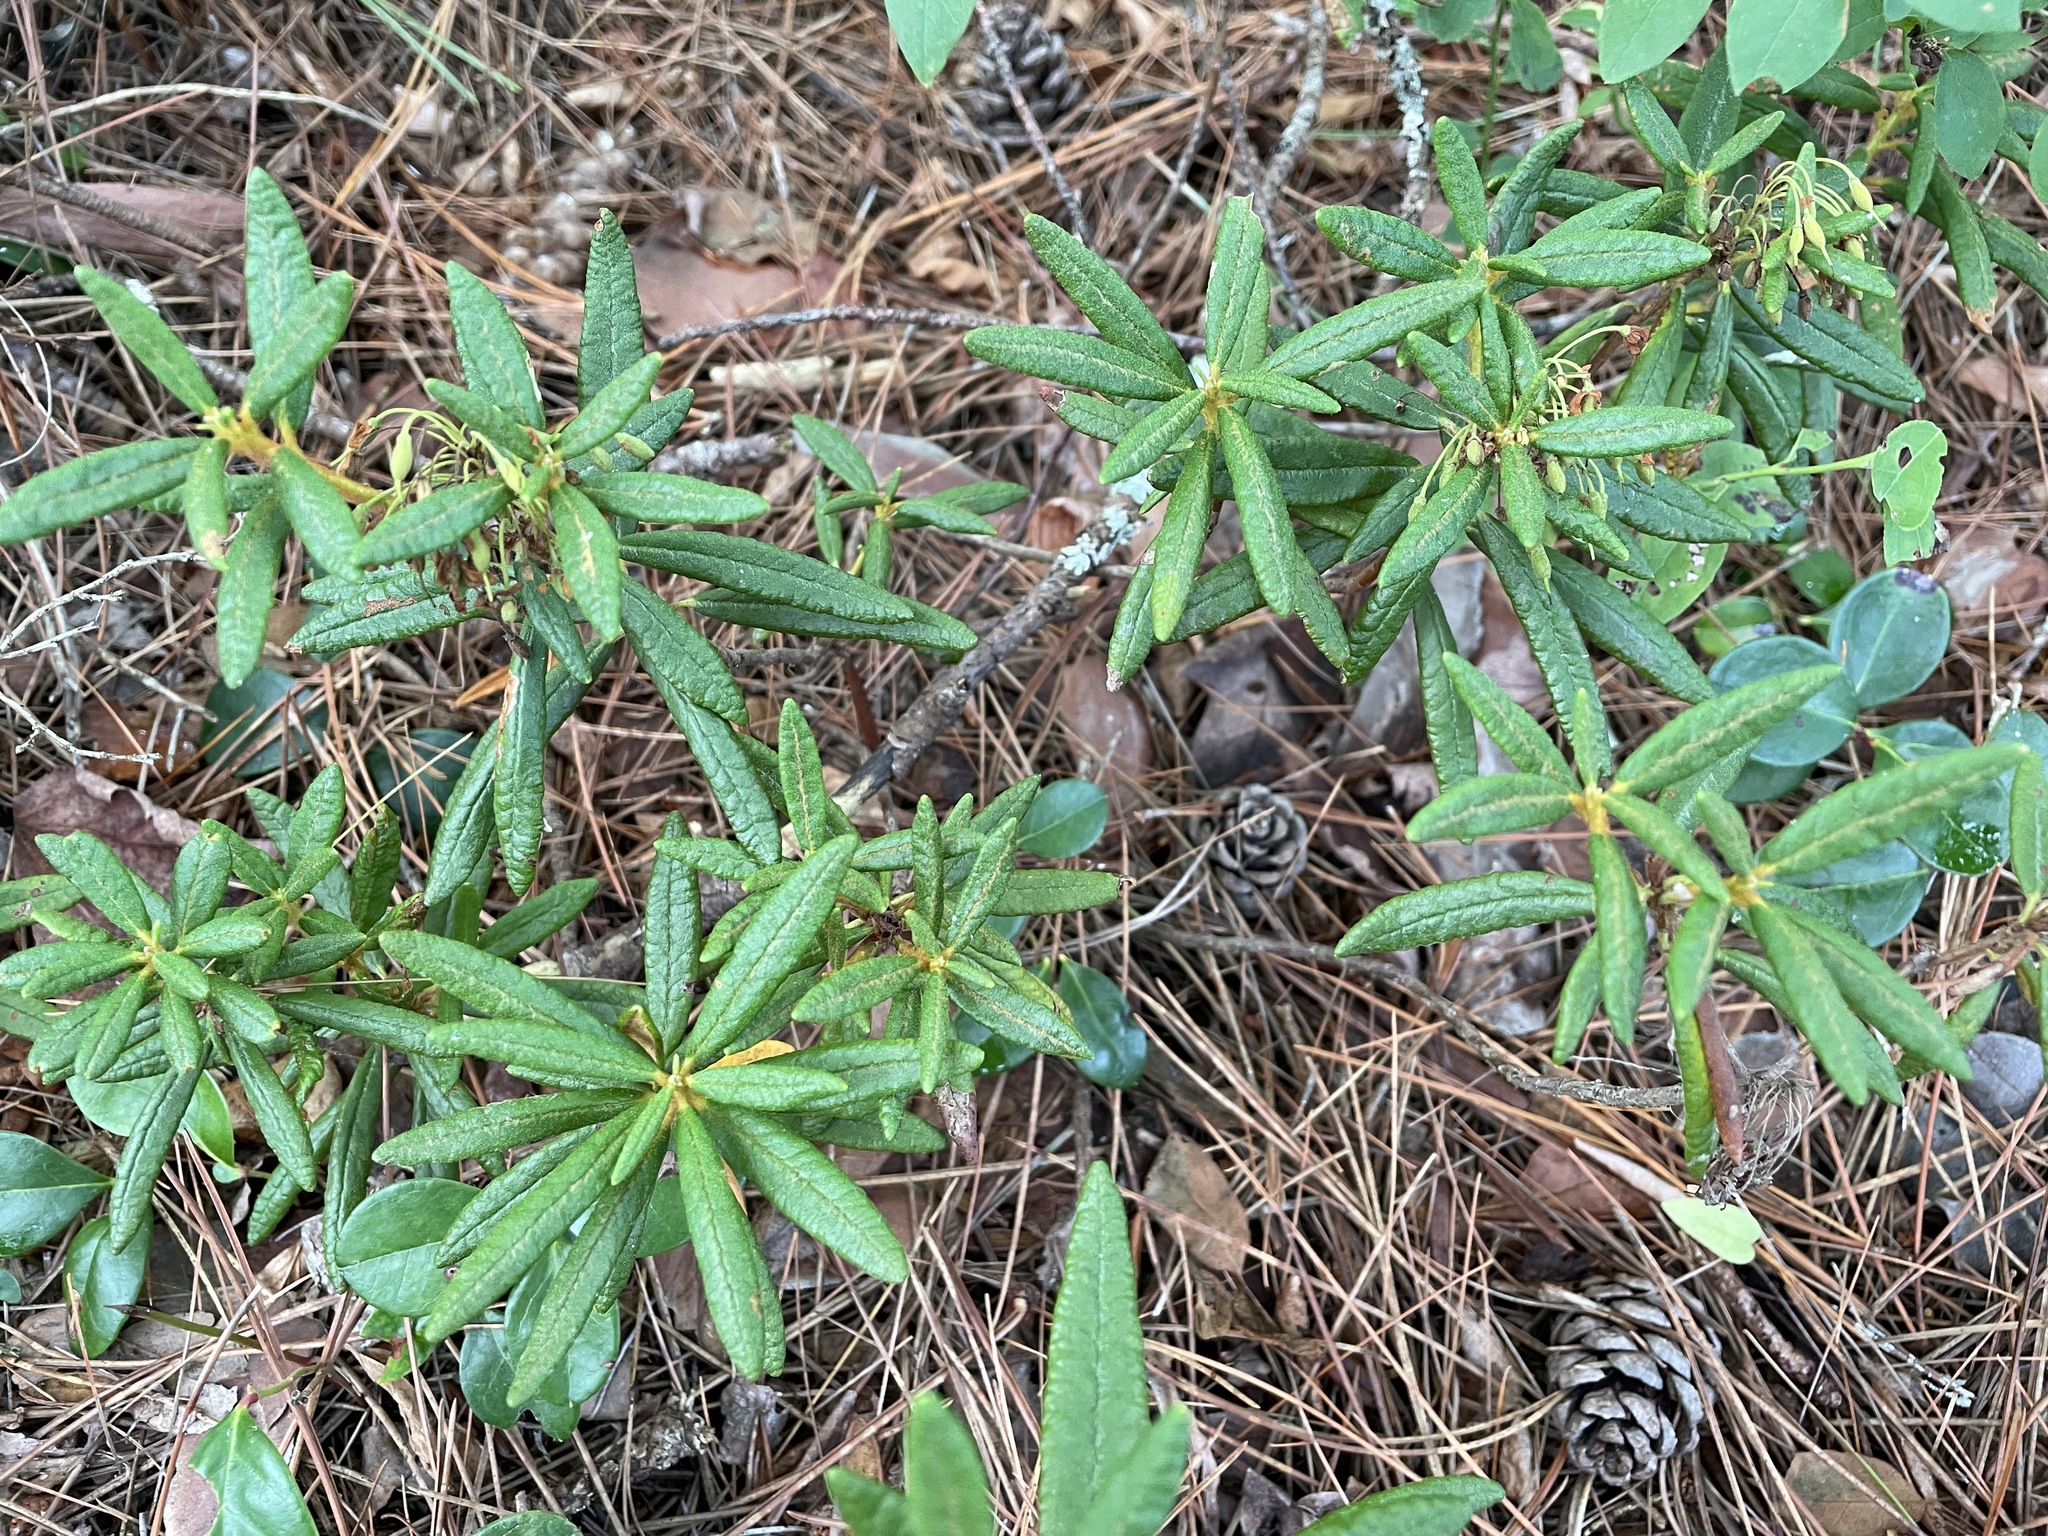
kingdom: Plantae
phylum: Tracheophyta
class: Magnoliopsida
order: Ericales
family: Ericaceae
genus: Rhododendron
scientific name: Rhododendron groenlandicum
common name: Bog labrador tea
